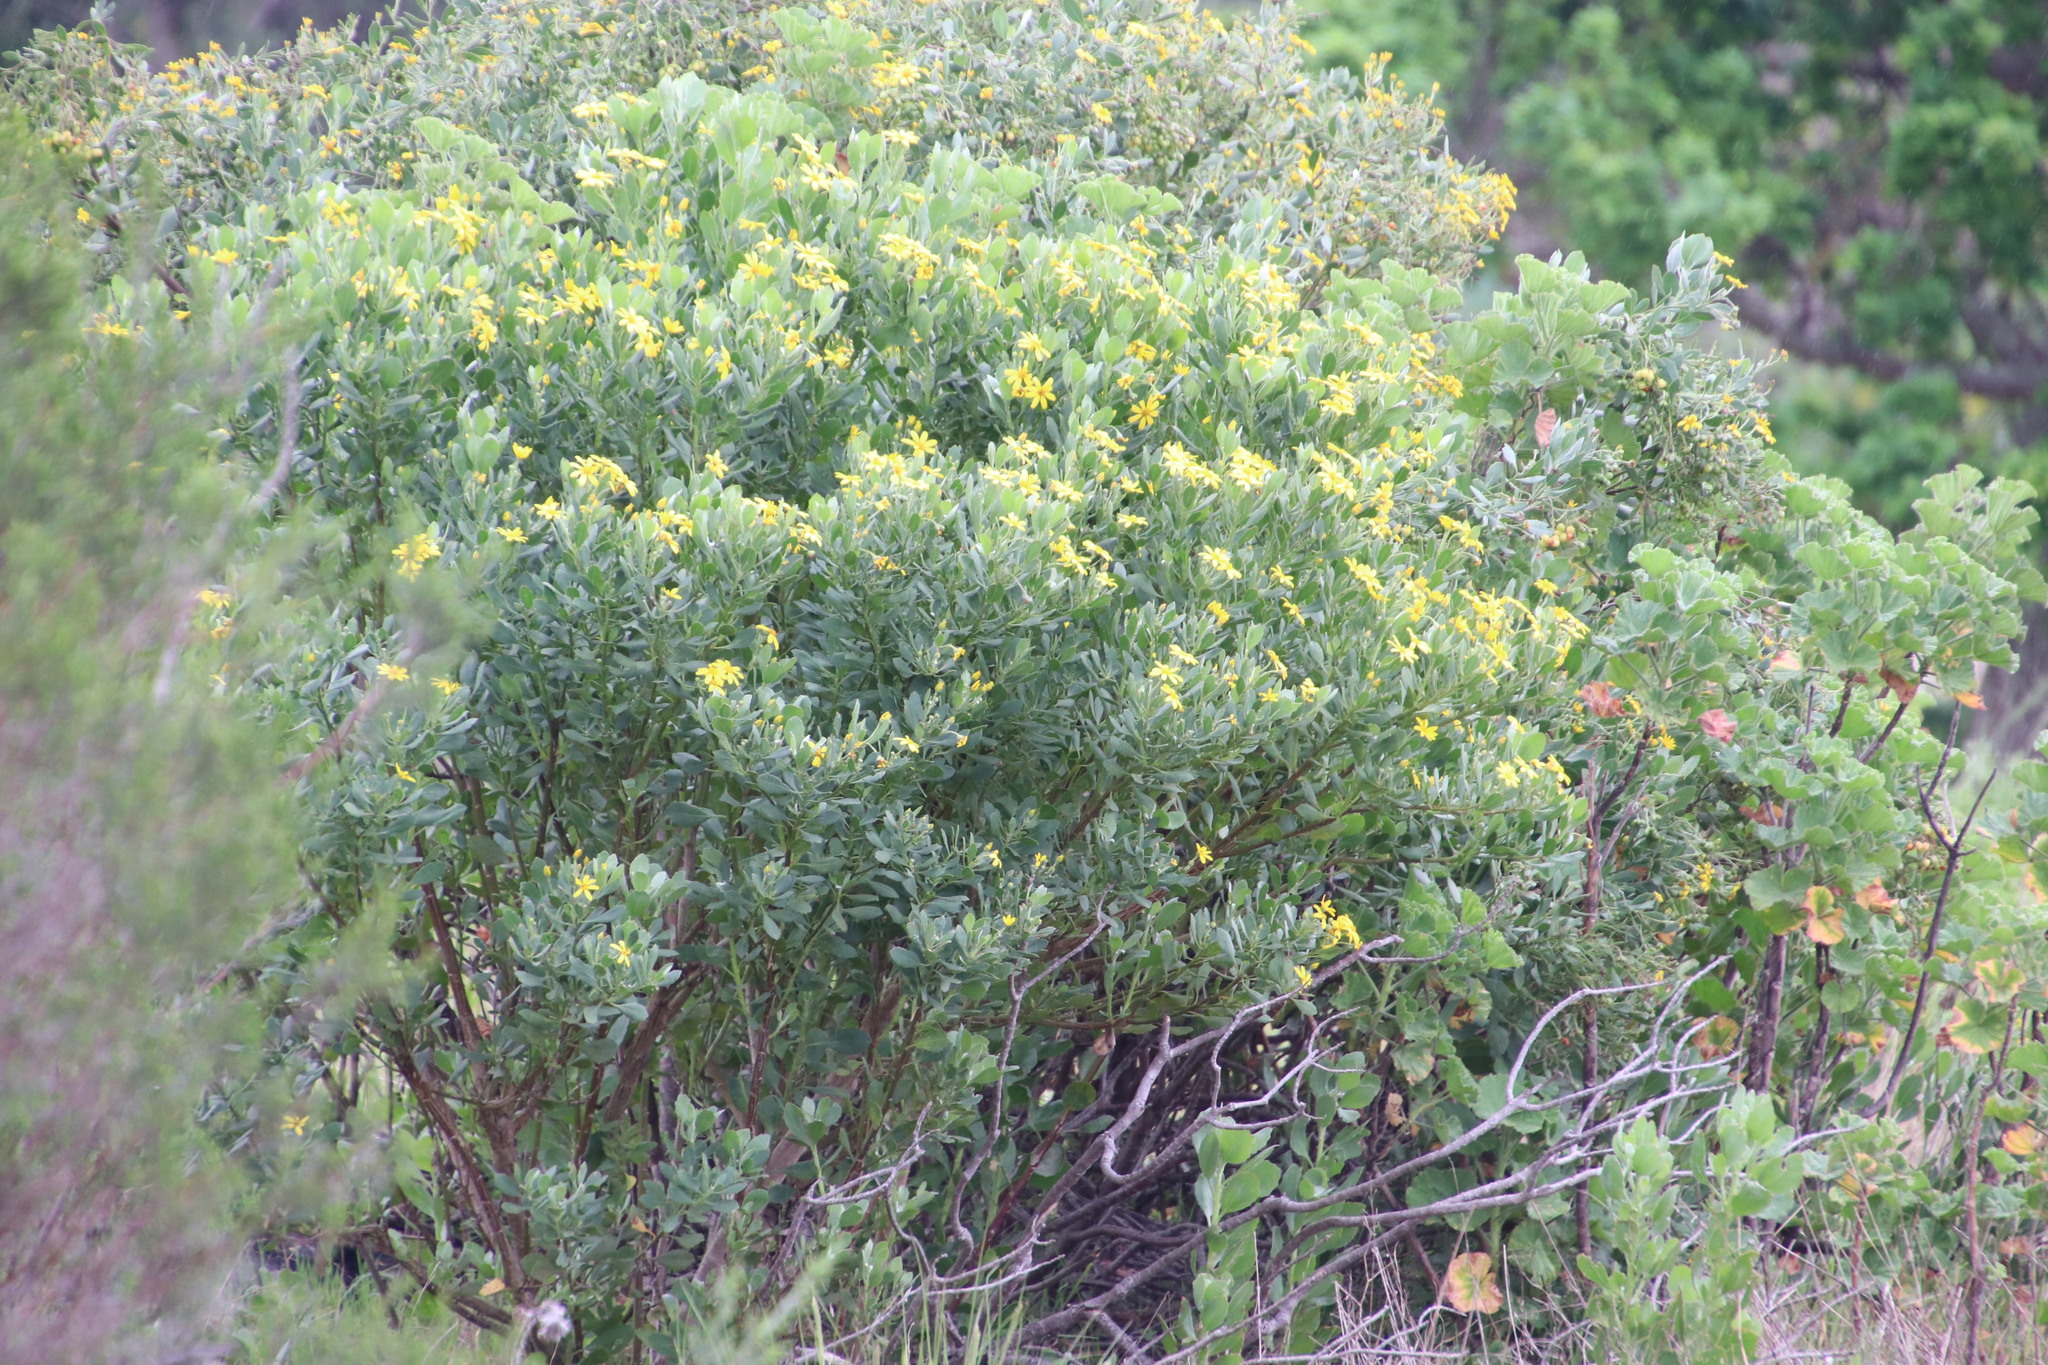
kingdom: Plantae
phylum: Tracheophyta
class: Magnoliopsida
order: Asterales
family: Asteraceae
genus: Osteospermum
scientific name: Osteospermum moniliferum
